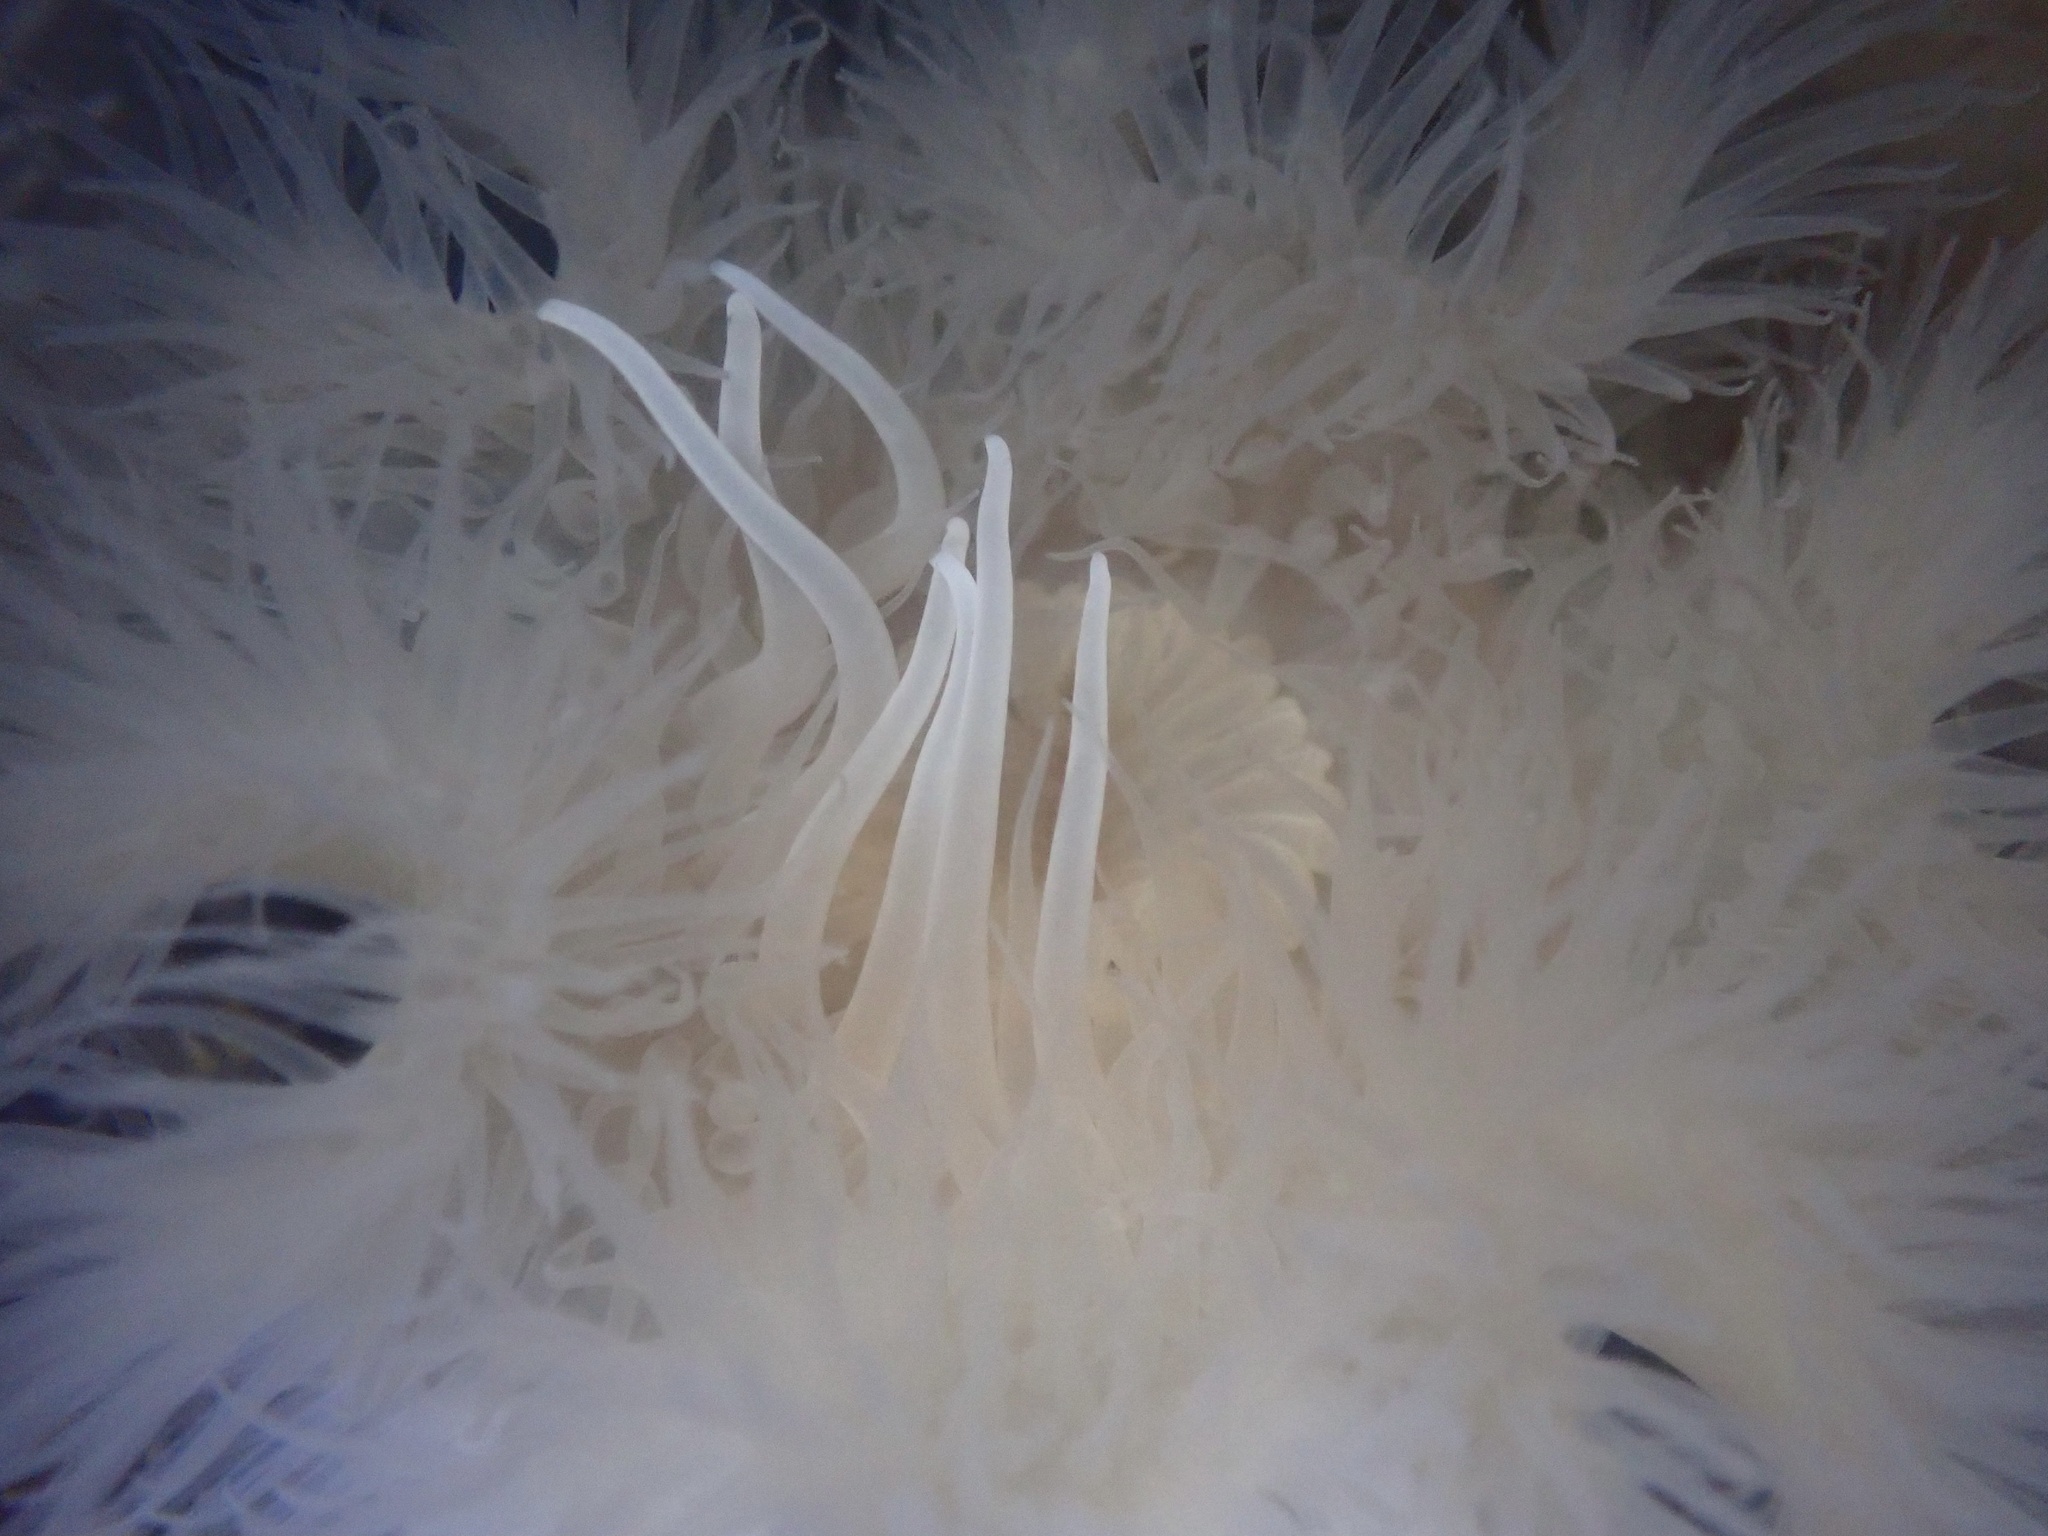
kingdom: Animalia
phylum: Cnidaria
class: Anthozoa
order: Actiniaria
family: Metridiidae
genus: Metridium
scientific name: Metridium senile
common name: Clonal plumose anemone
